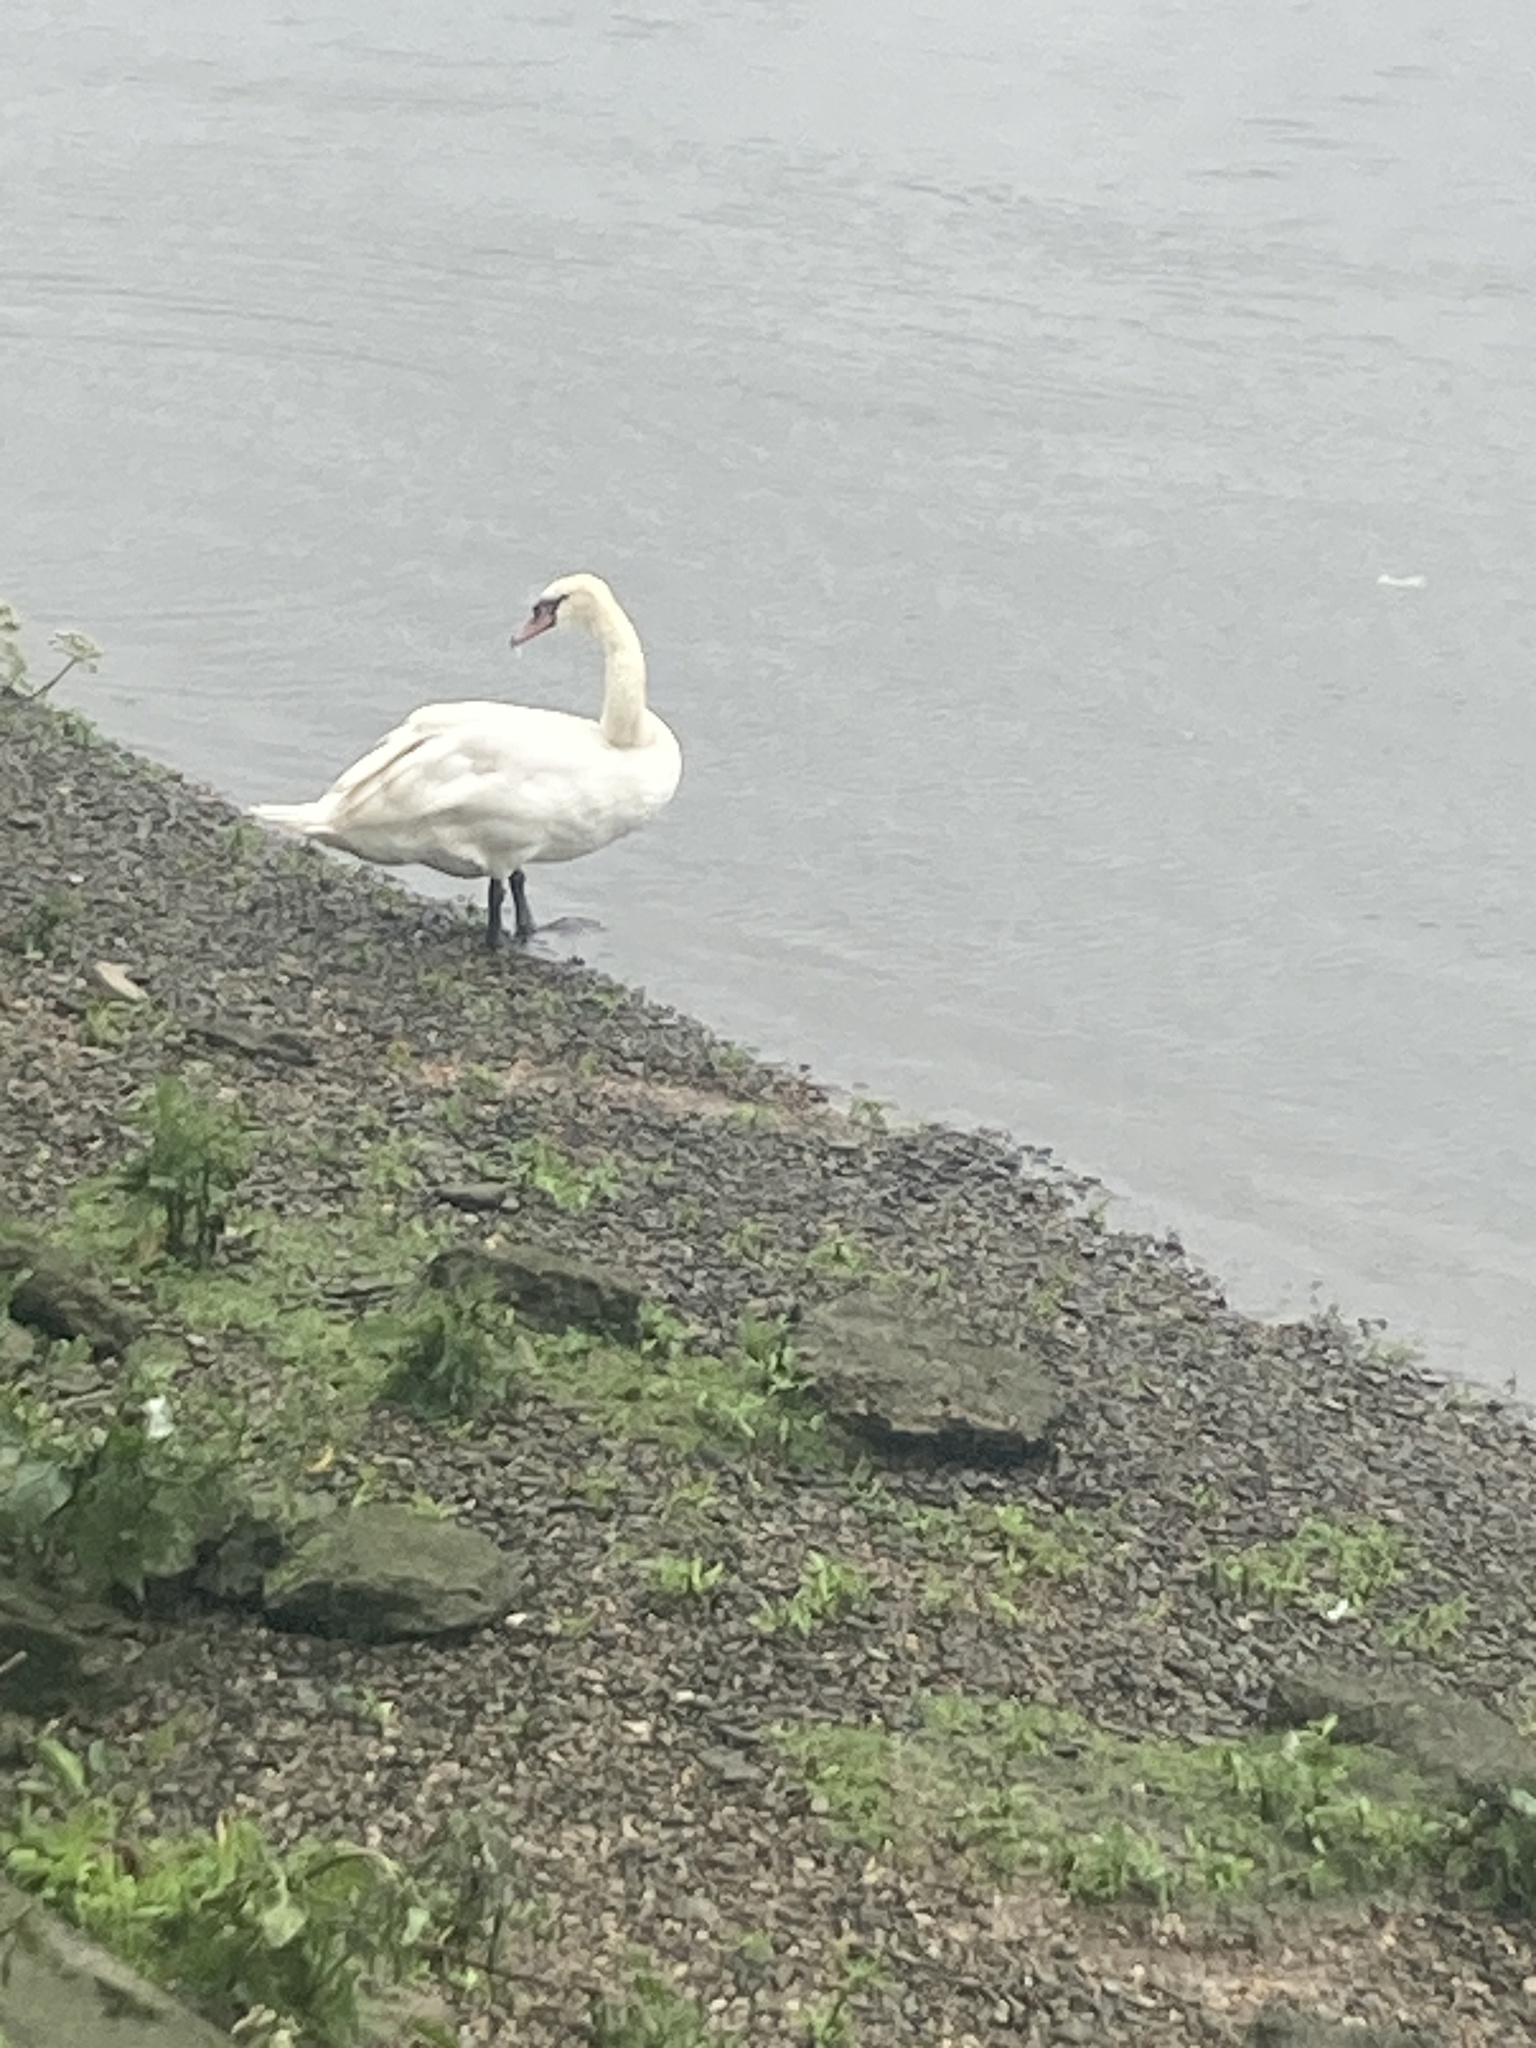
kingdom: Animalia
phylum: Chordata
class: Aves
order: Anseriformes
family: Anatidae
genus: Cygnus
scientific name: Cygnus olor
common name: Mute swan
